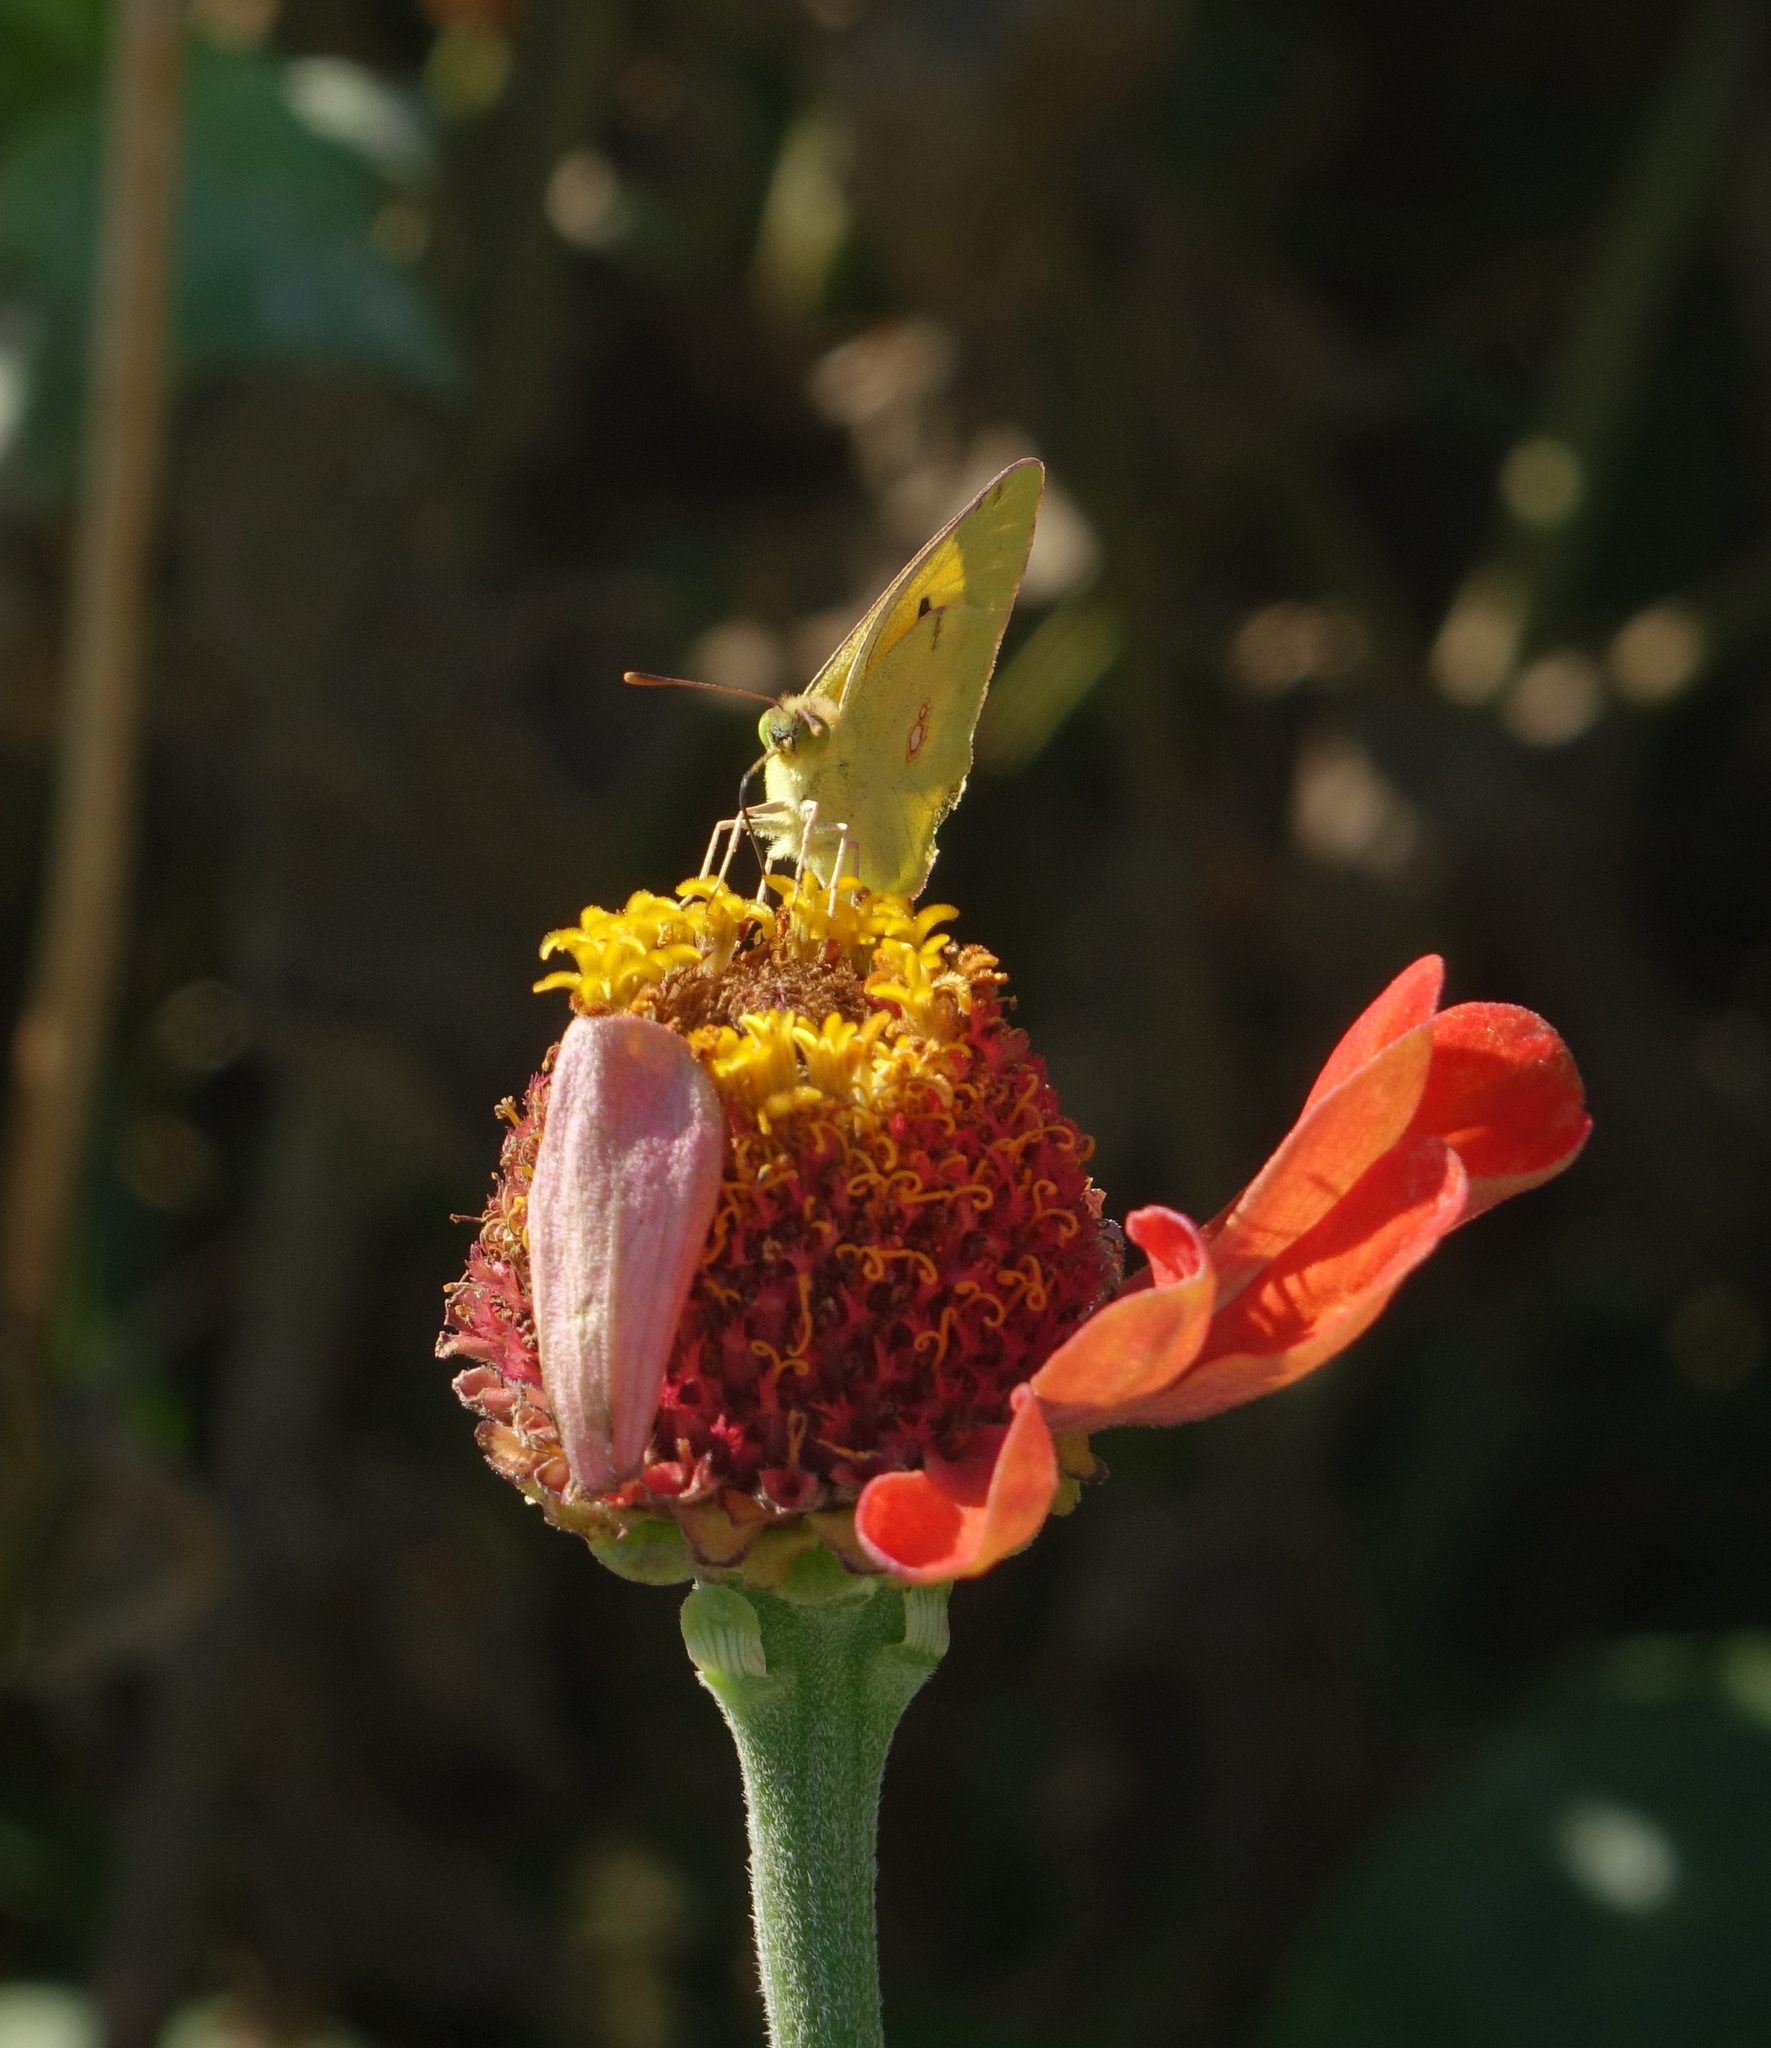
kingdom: Animalia
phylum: Arthropoda
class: Insecta
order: Lepidoptera
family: Pieridae
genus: Colias
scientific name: Colias croceus
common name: Clouded yellow
